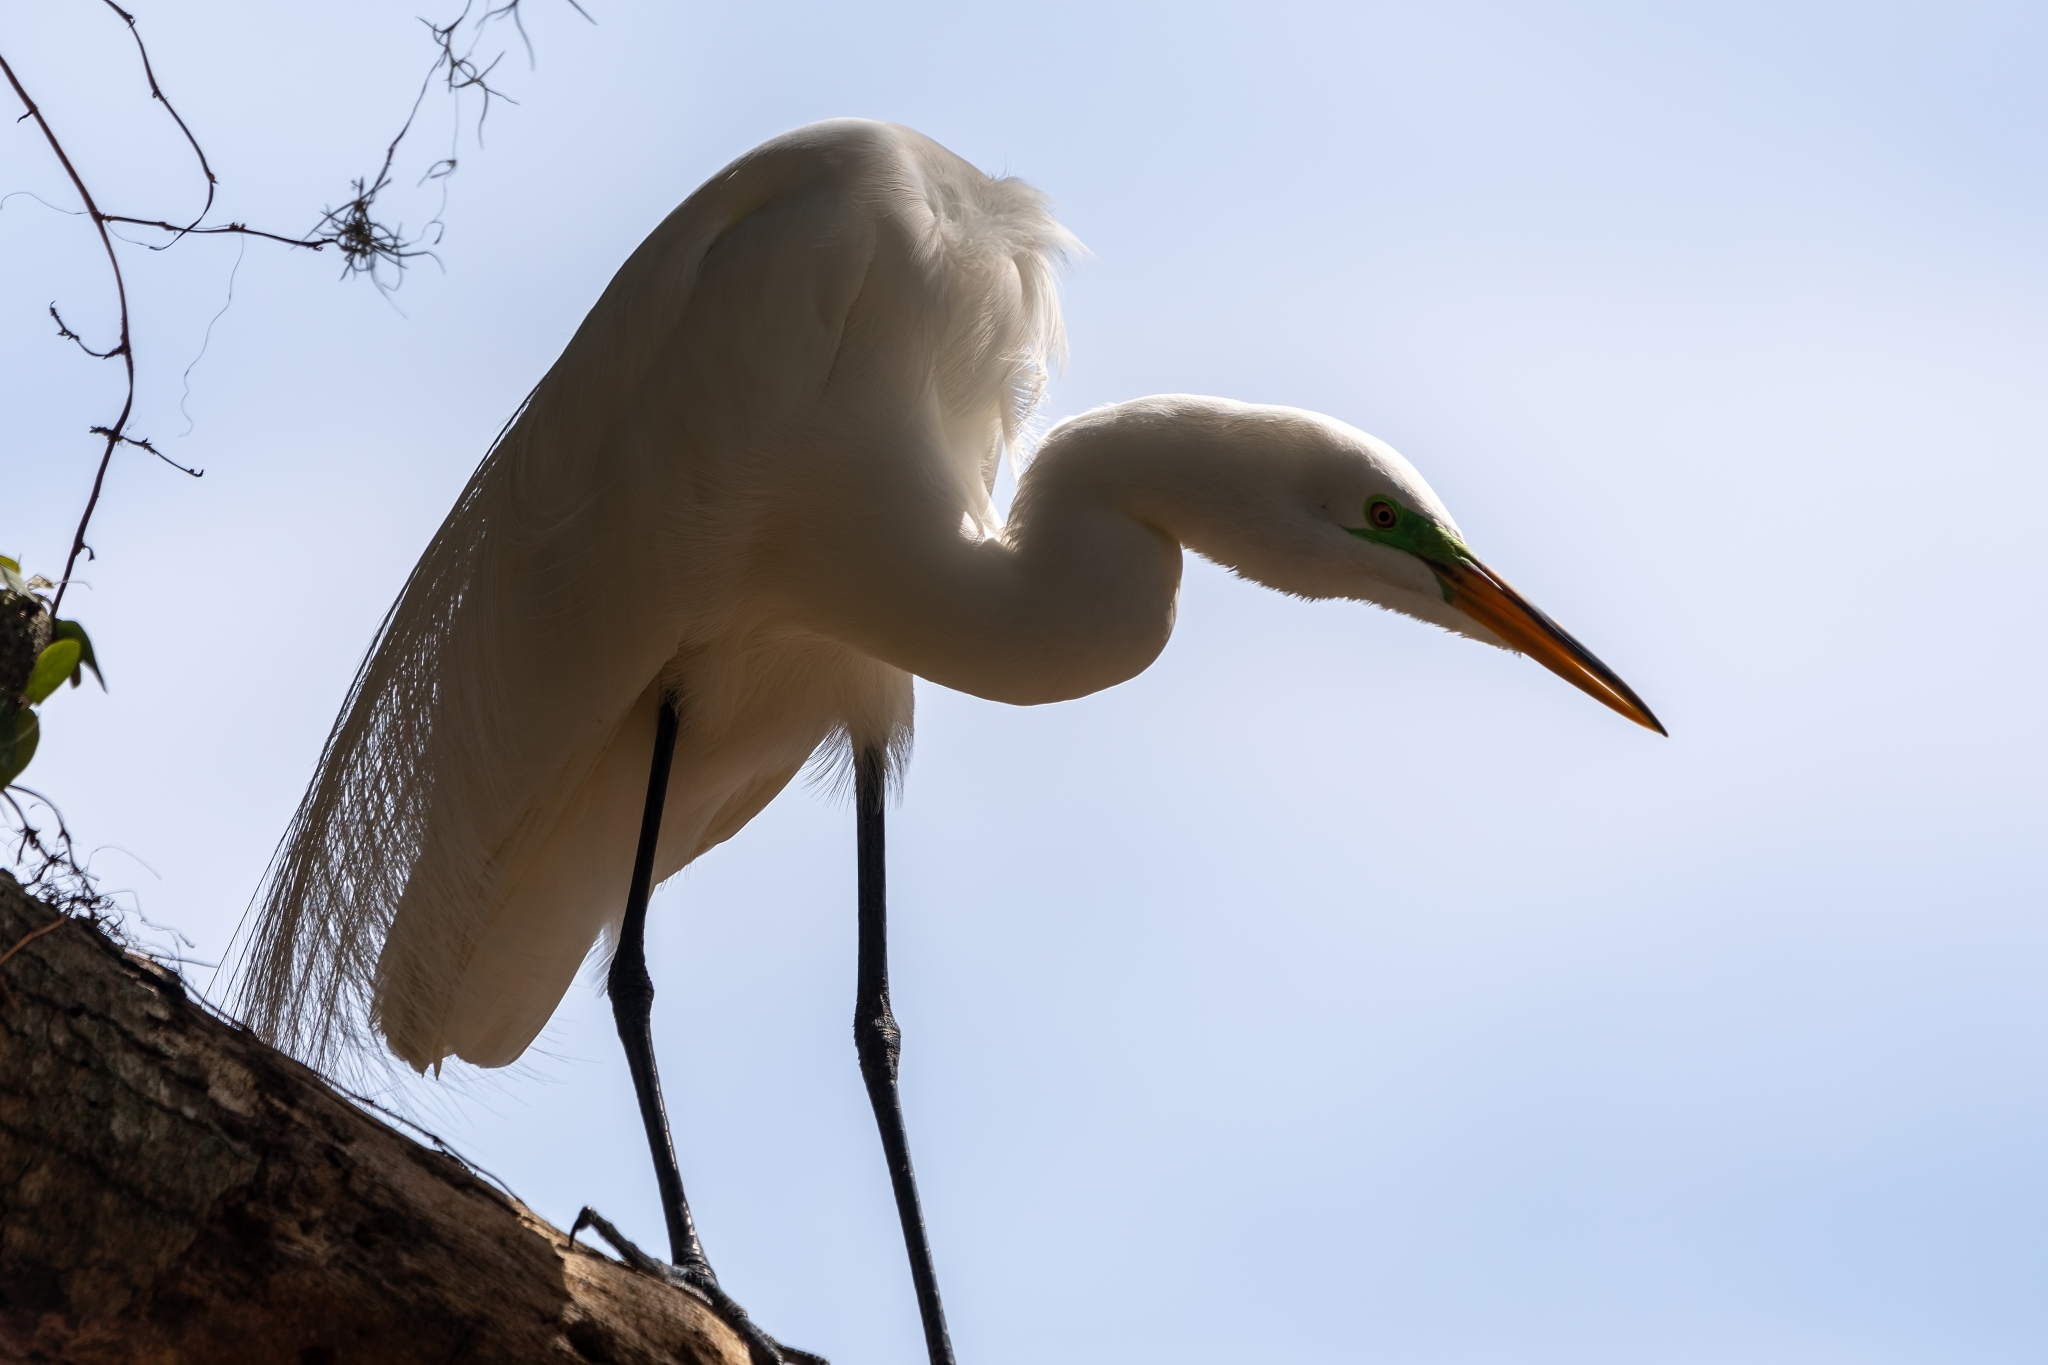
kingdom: Animalia
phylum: Chordata
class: Aves
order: Pelecaniformes
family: Ardeidae
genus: Ardea
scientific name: Ardea alba
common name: Great egret
